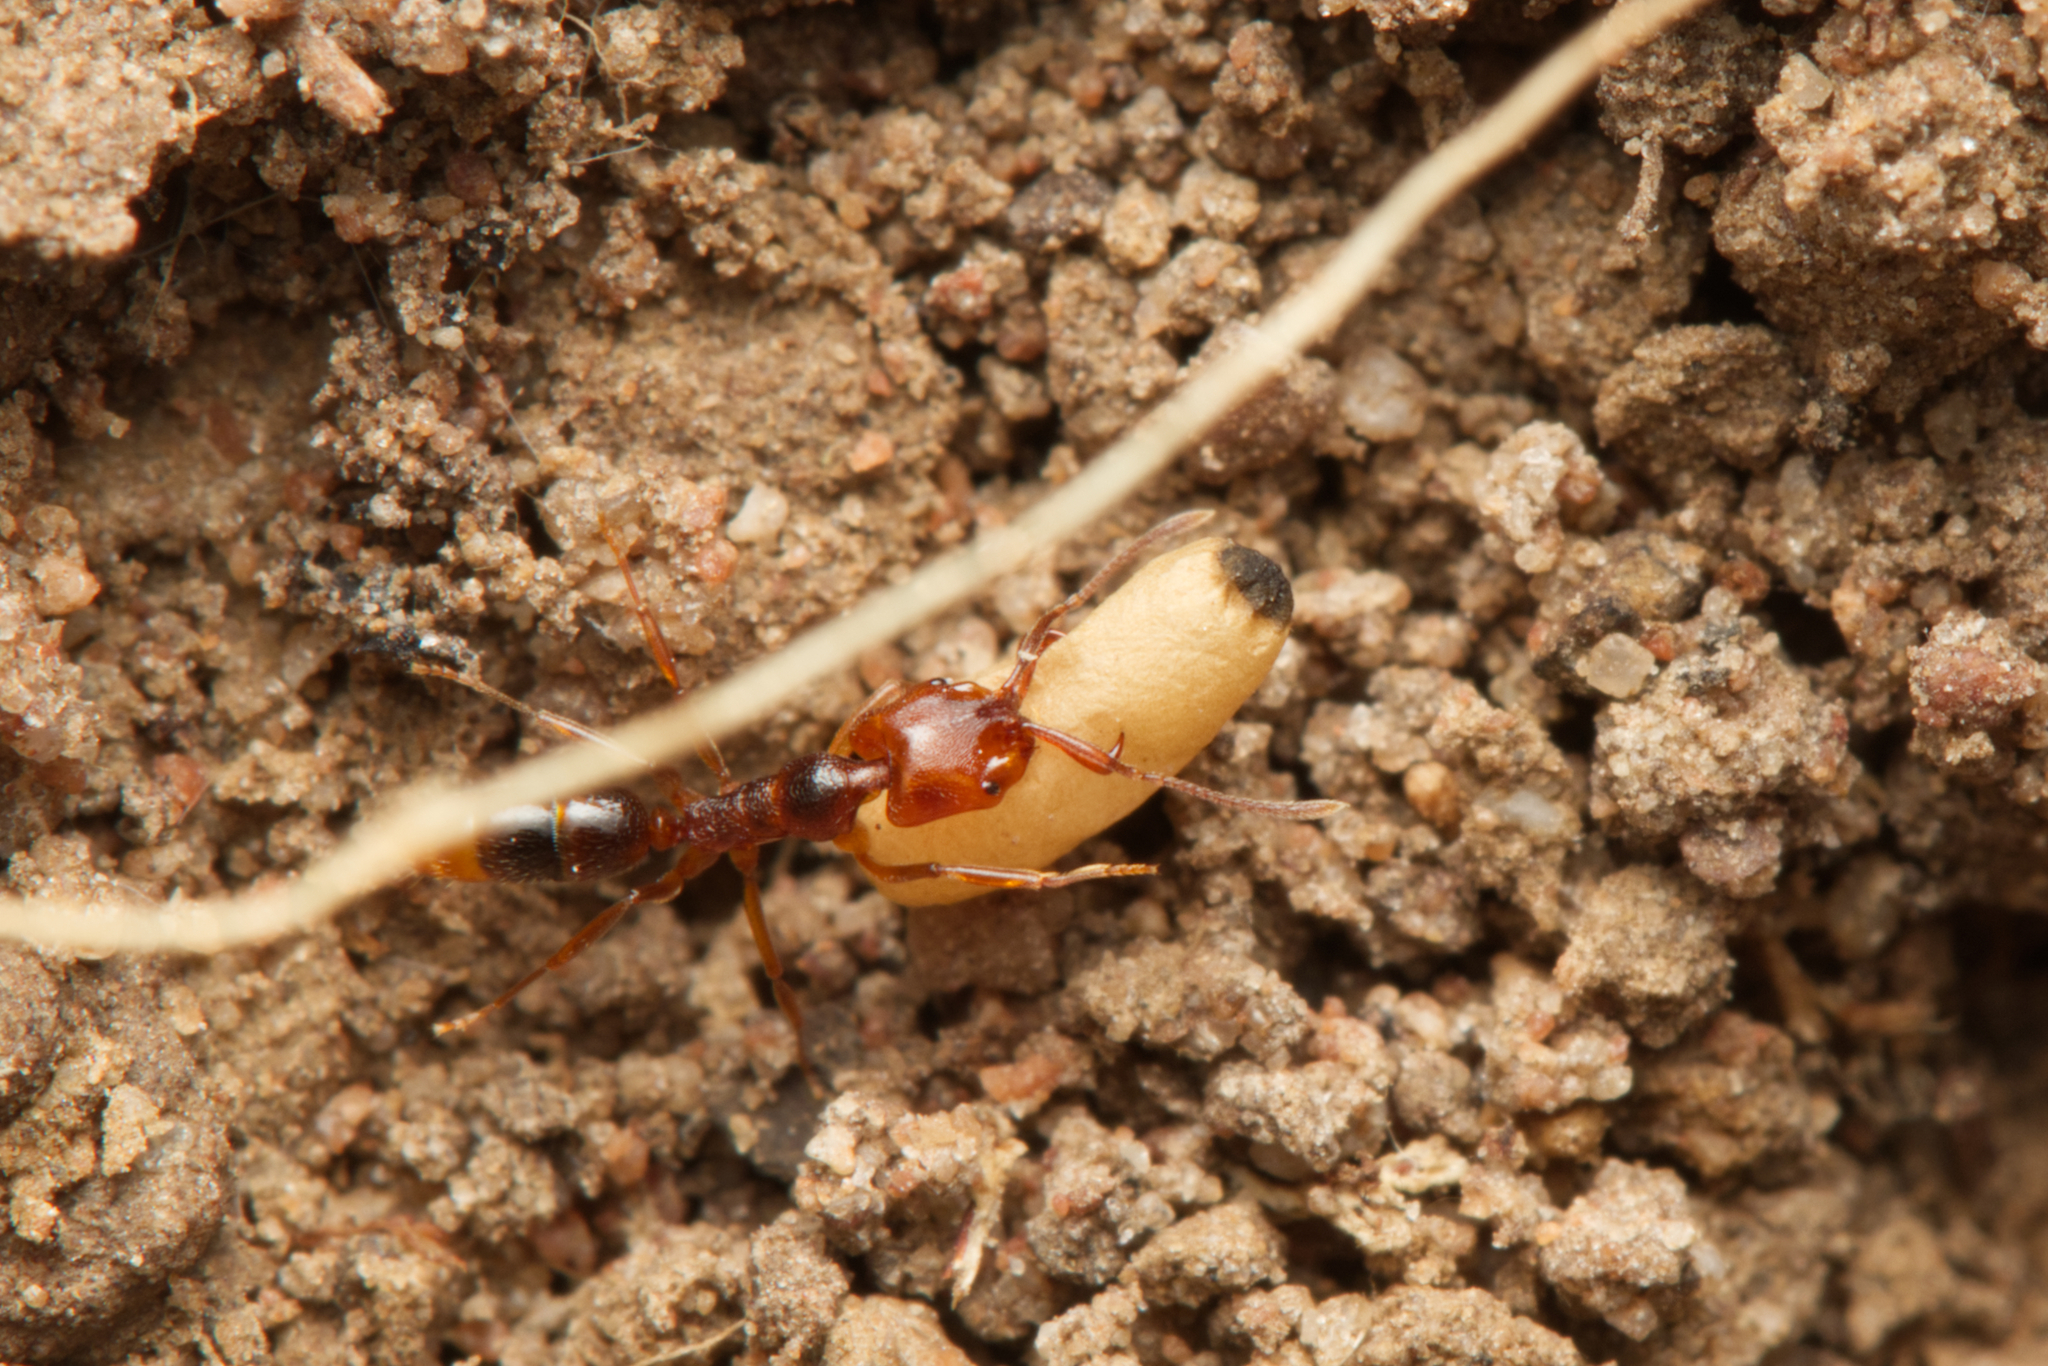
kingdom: Animalia
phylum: Arthropoda
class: Insecta
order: Hymenoptera
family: Formicidae
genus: Anochetus
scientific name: Anochetus graeffei
